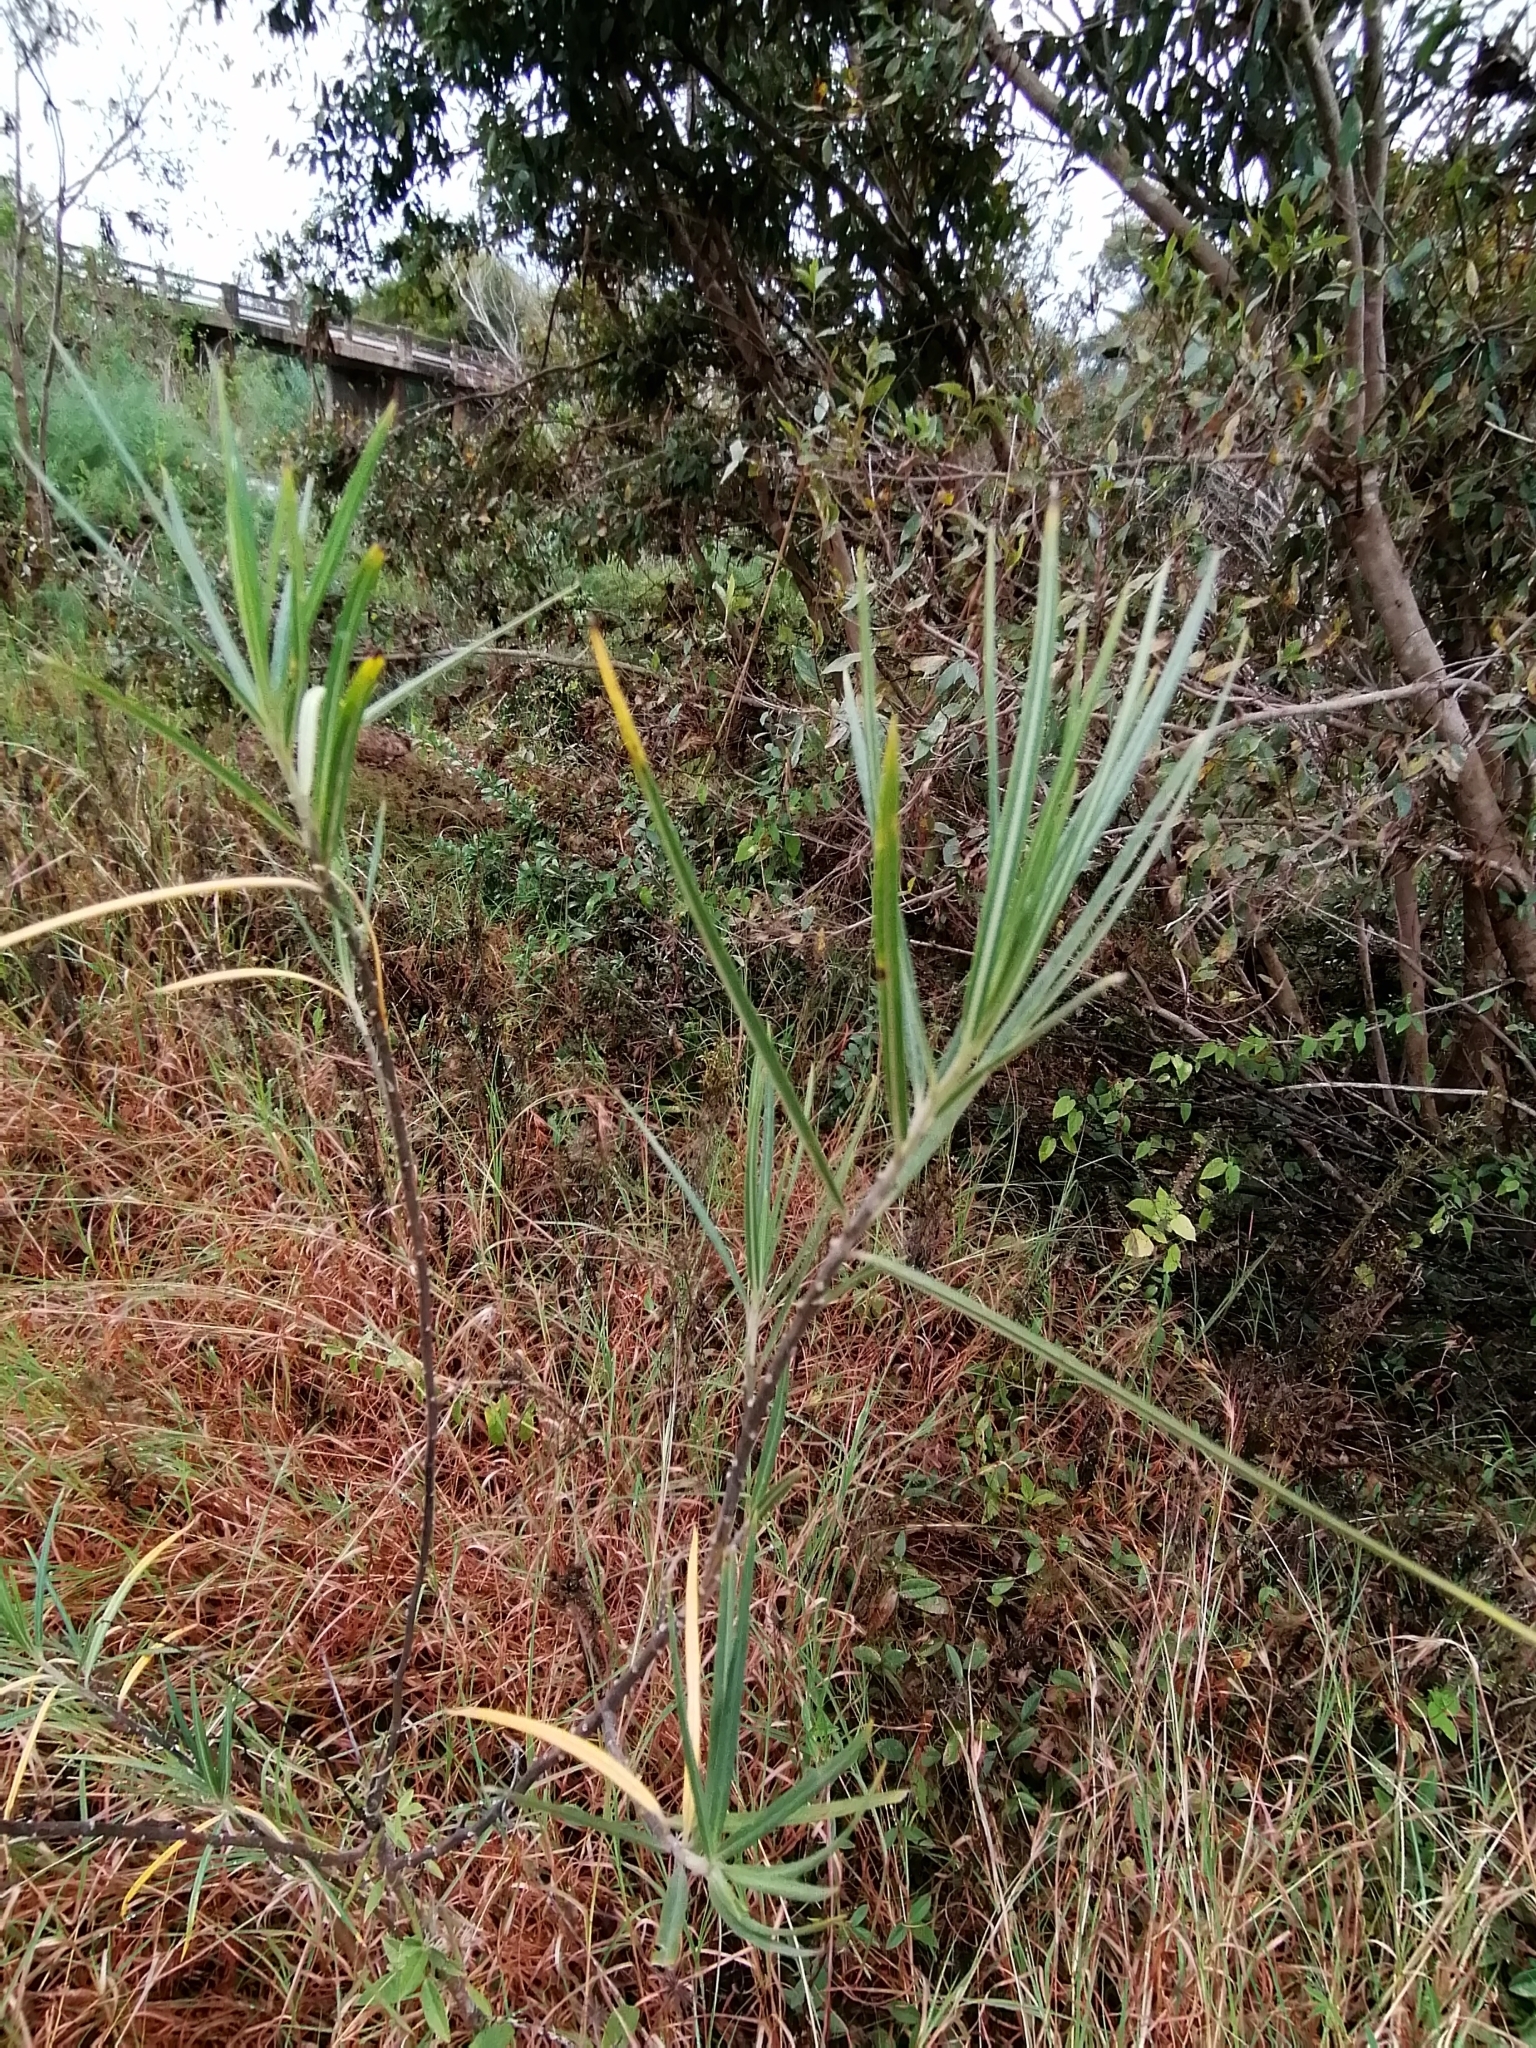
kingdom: Plantae
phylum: Tracheophyta
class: Magnoliopsida
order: Gentianales
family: Apocynaceae
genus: Gomphocarpus
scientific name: Gomphocarpus fruticosus
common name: Milkweed
